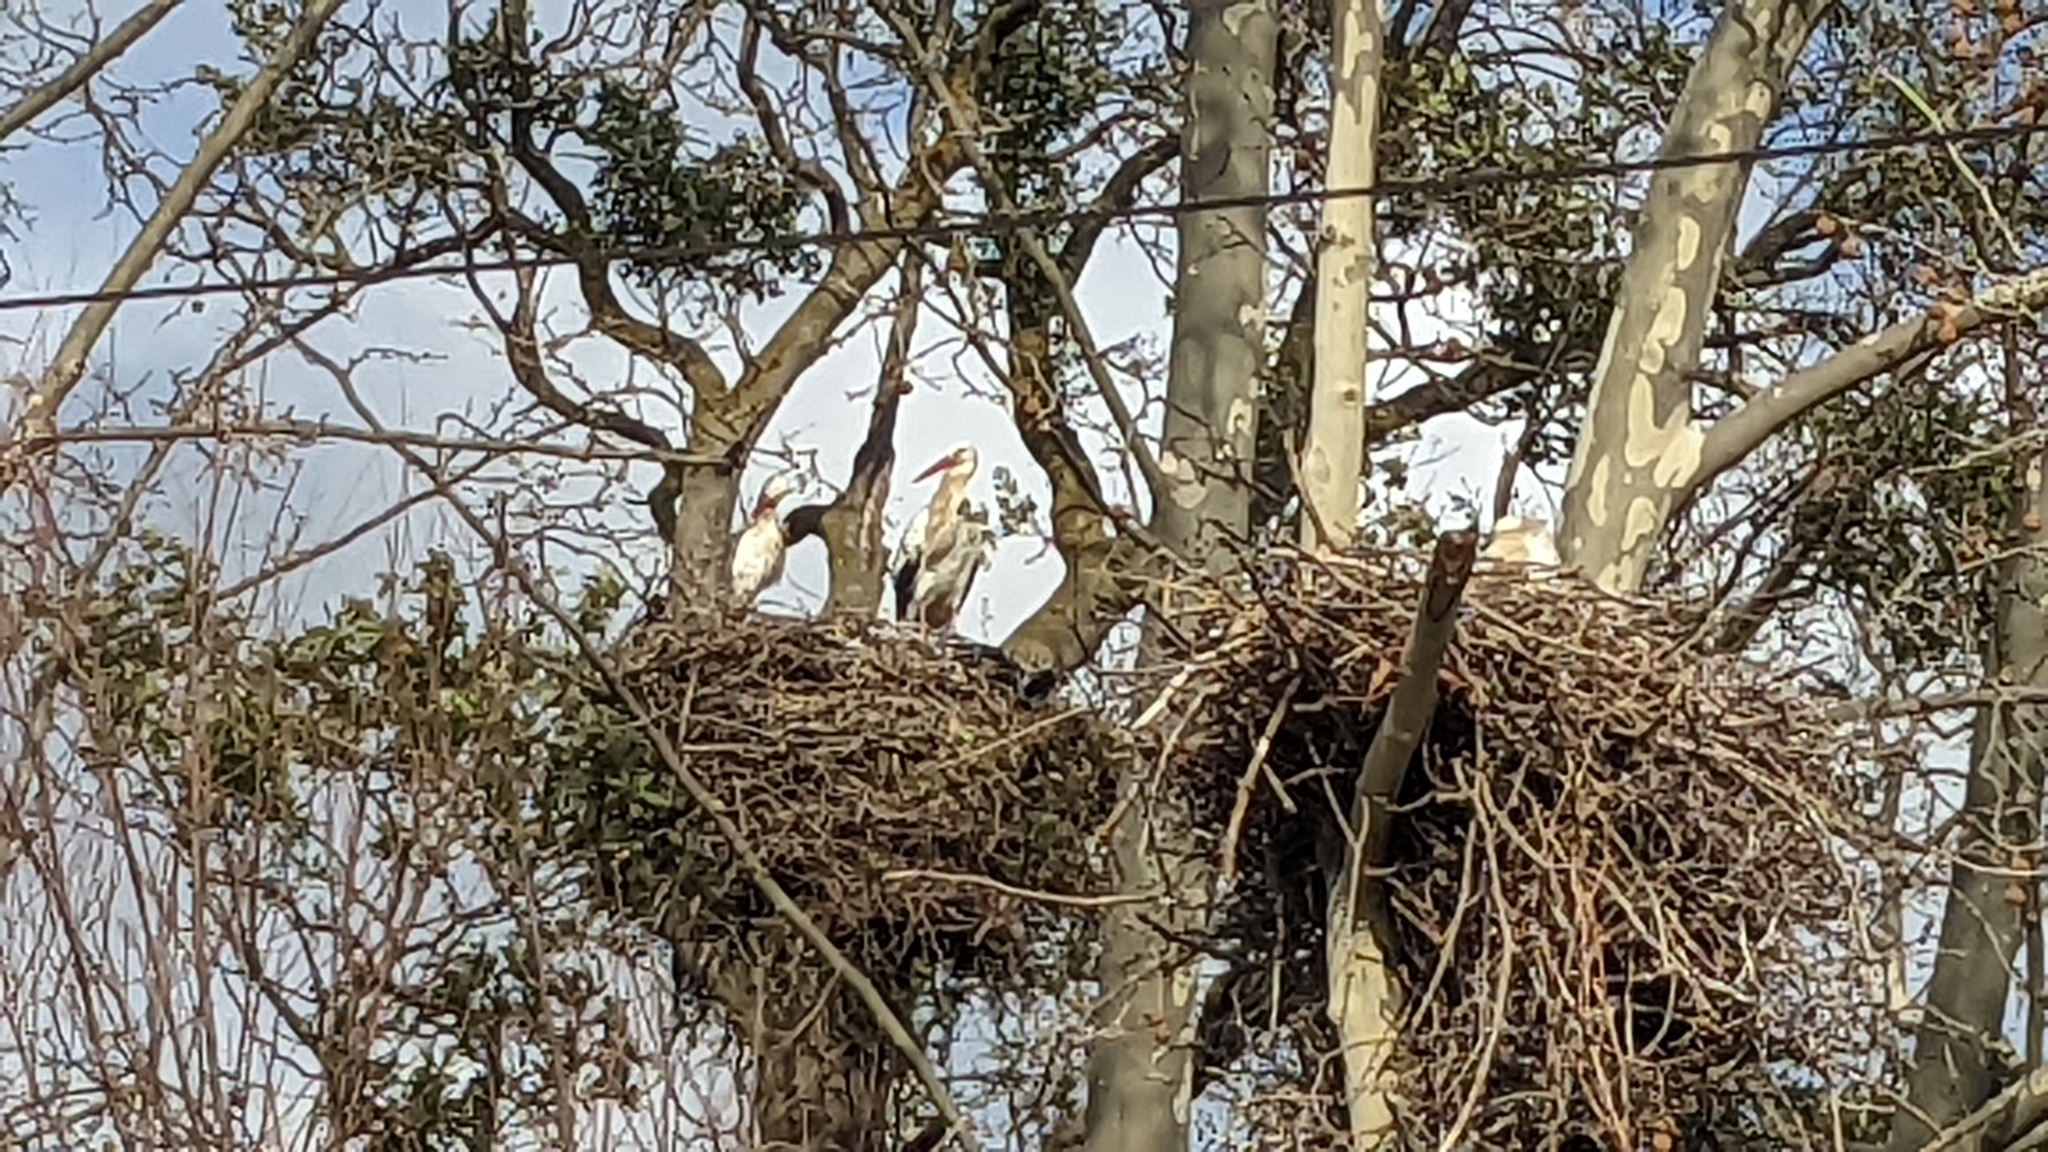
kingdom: Animalia
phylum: Chordata
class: Aves
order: Ciconiiformes
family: Ciconiidae
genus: Ciconia
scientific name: Ciconia ciconia
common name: White stork
